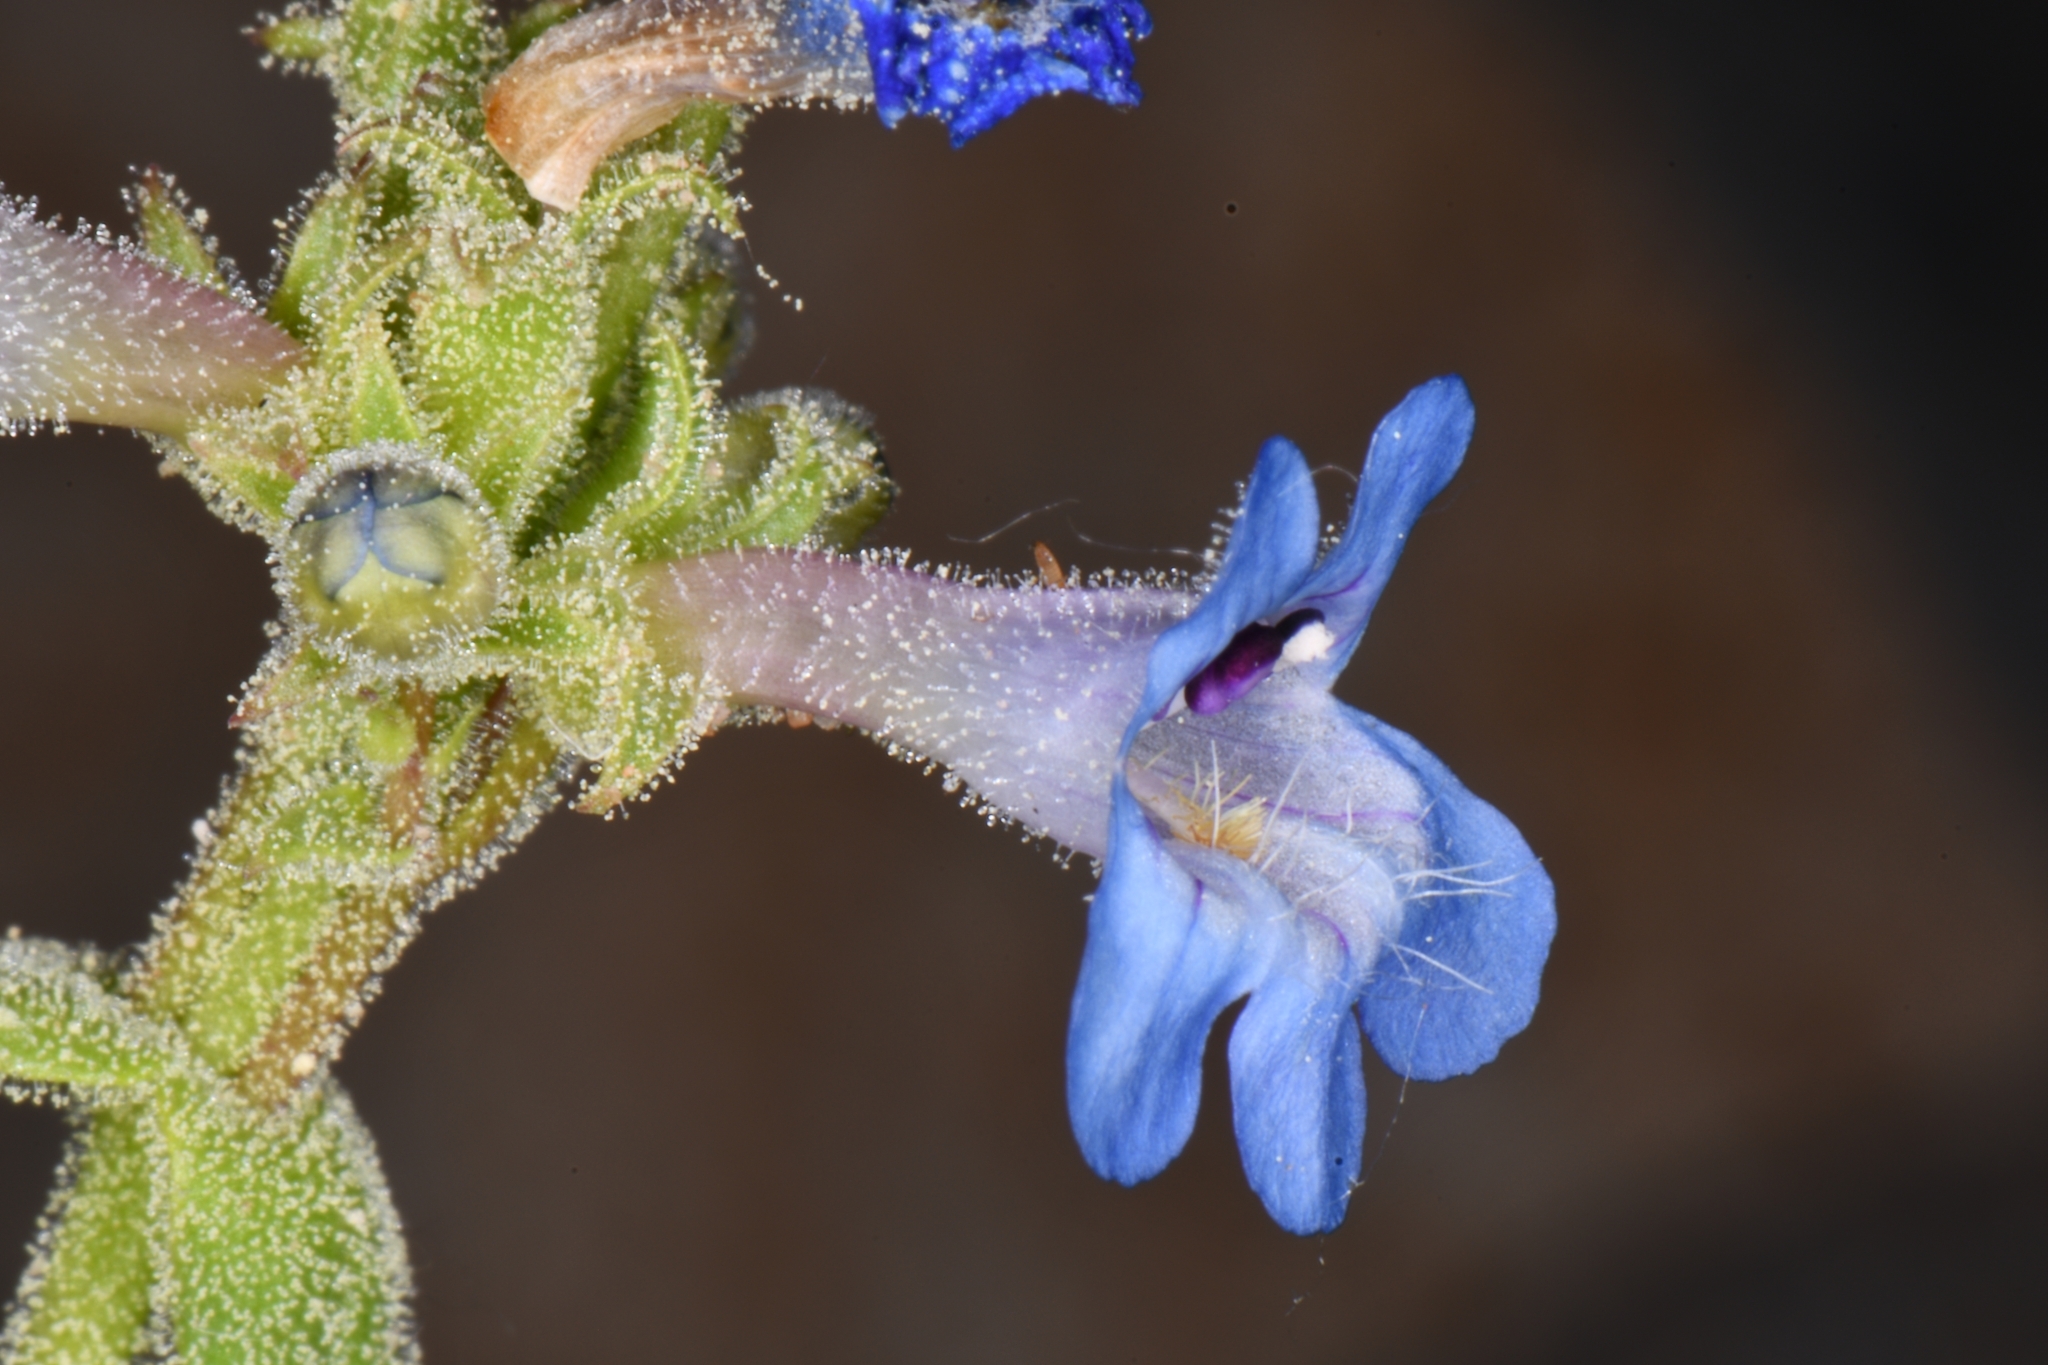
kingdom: Plantae
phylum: Tracheophyta
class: Magnoliopsida
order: Lamiales
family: Plantaginaceae
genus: Penstemon
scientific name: Penstemon humilis
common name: Low penstemon
